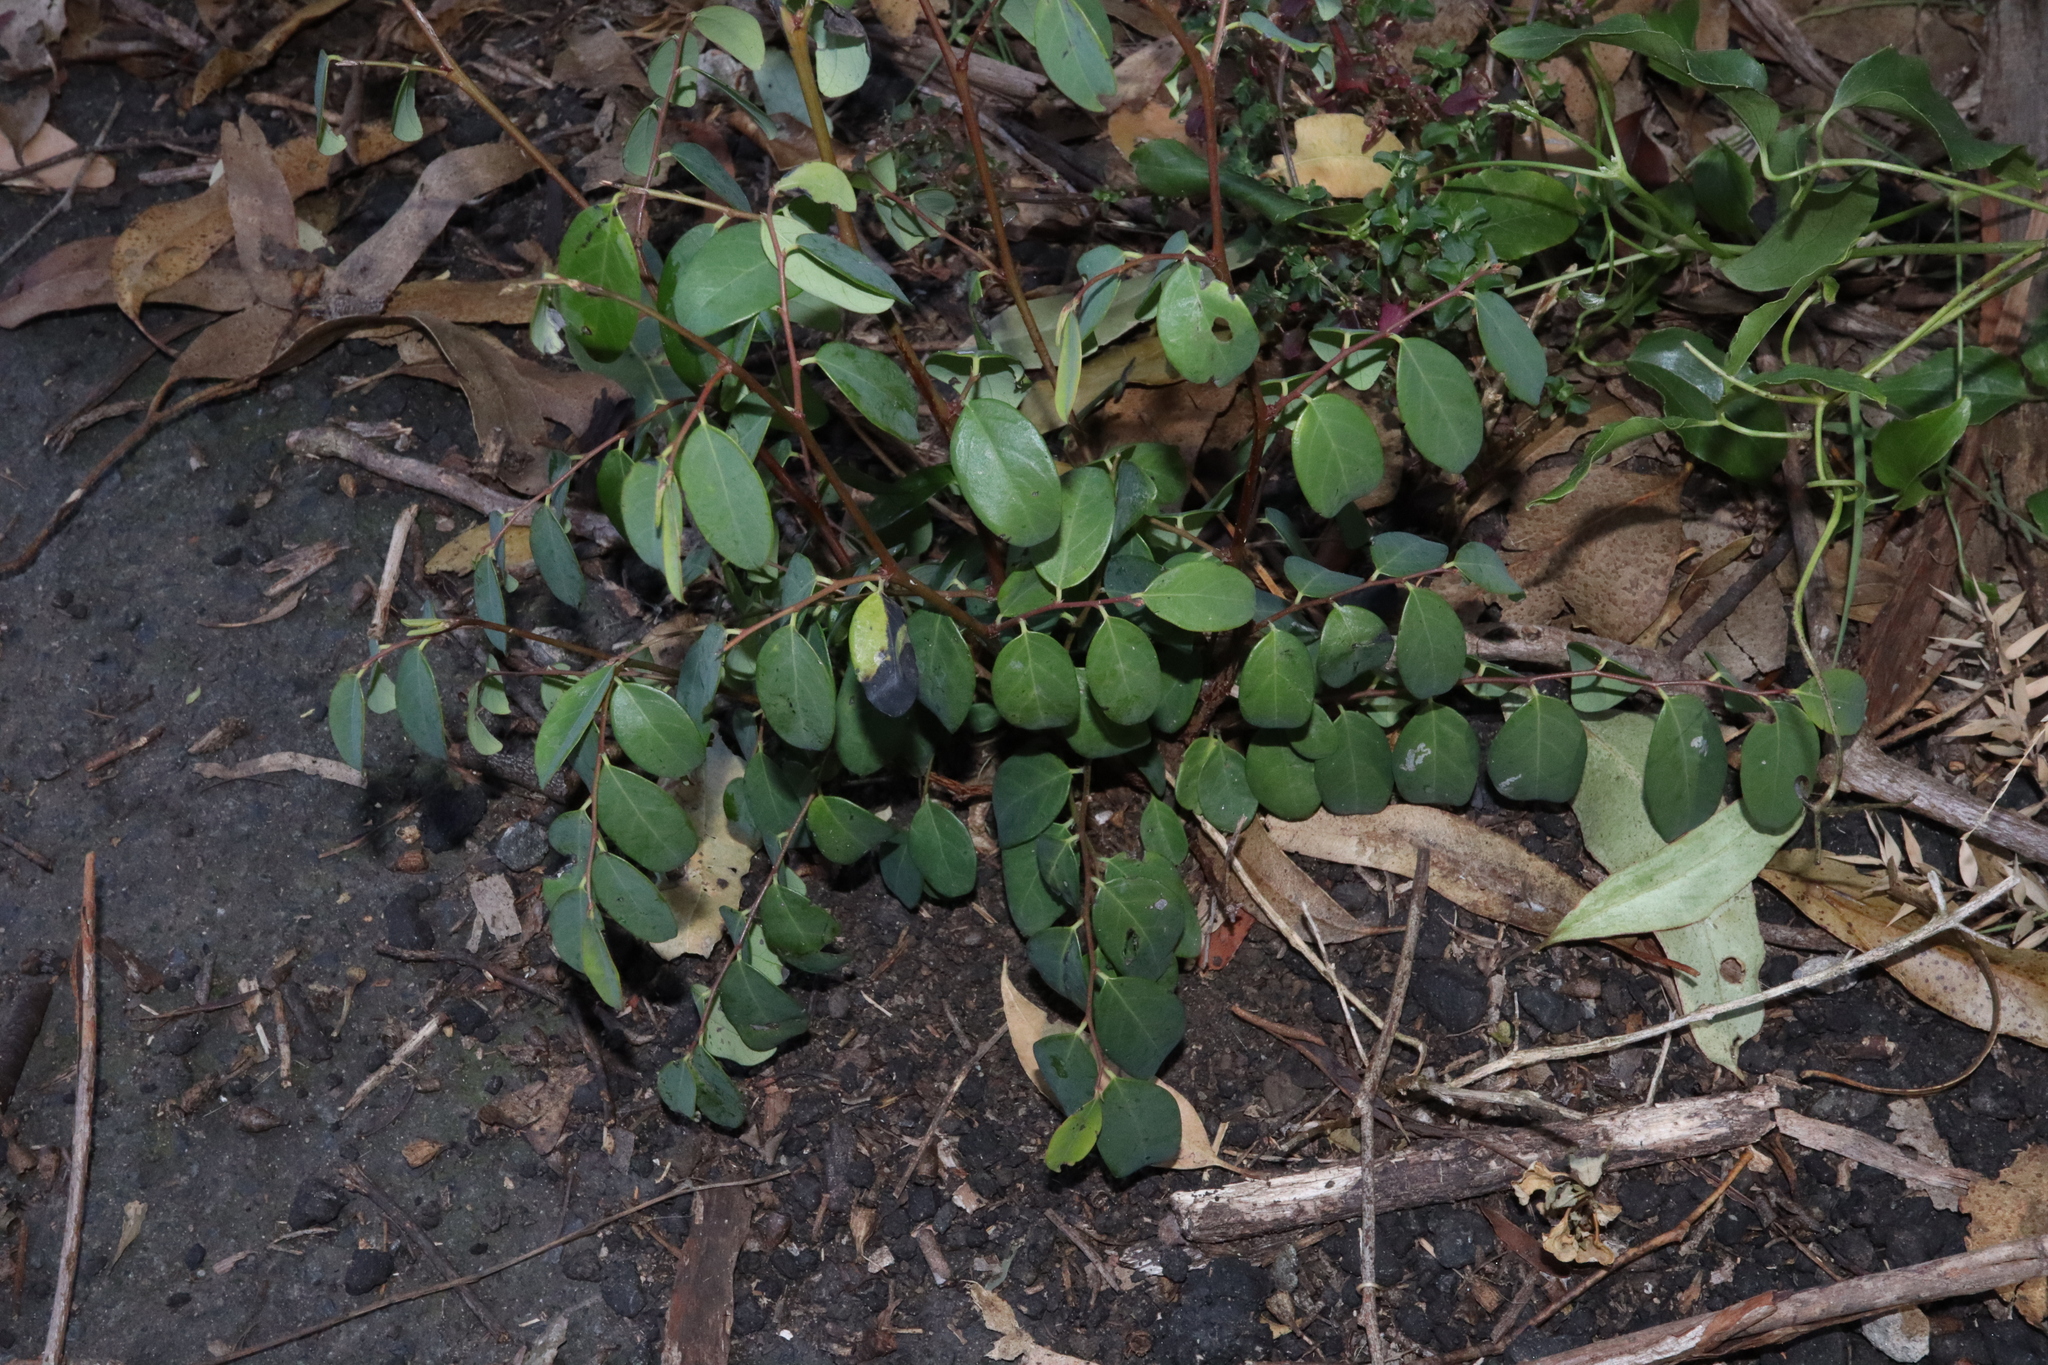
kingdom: Plantae
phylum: Tracheophyta
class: Magnoliopsida
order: Malpighiales
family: Phyllanthaceae
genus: Breynia
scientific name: Breynia oblongifolia
